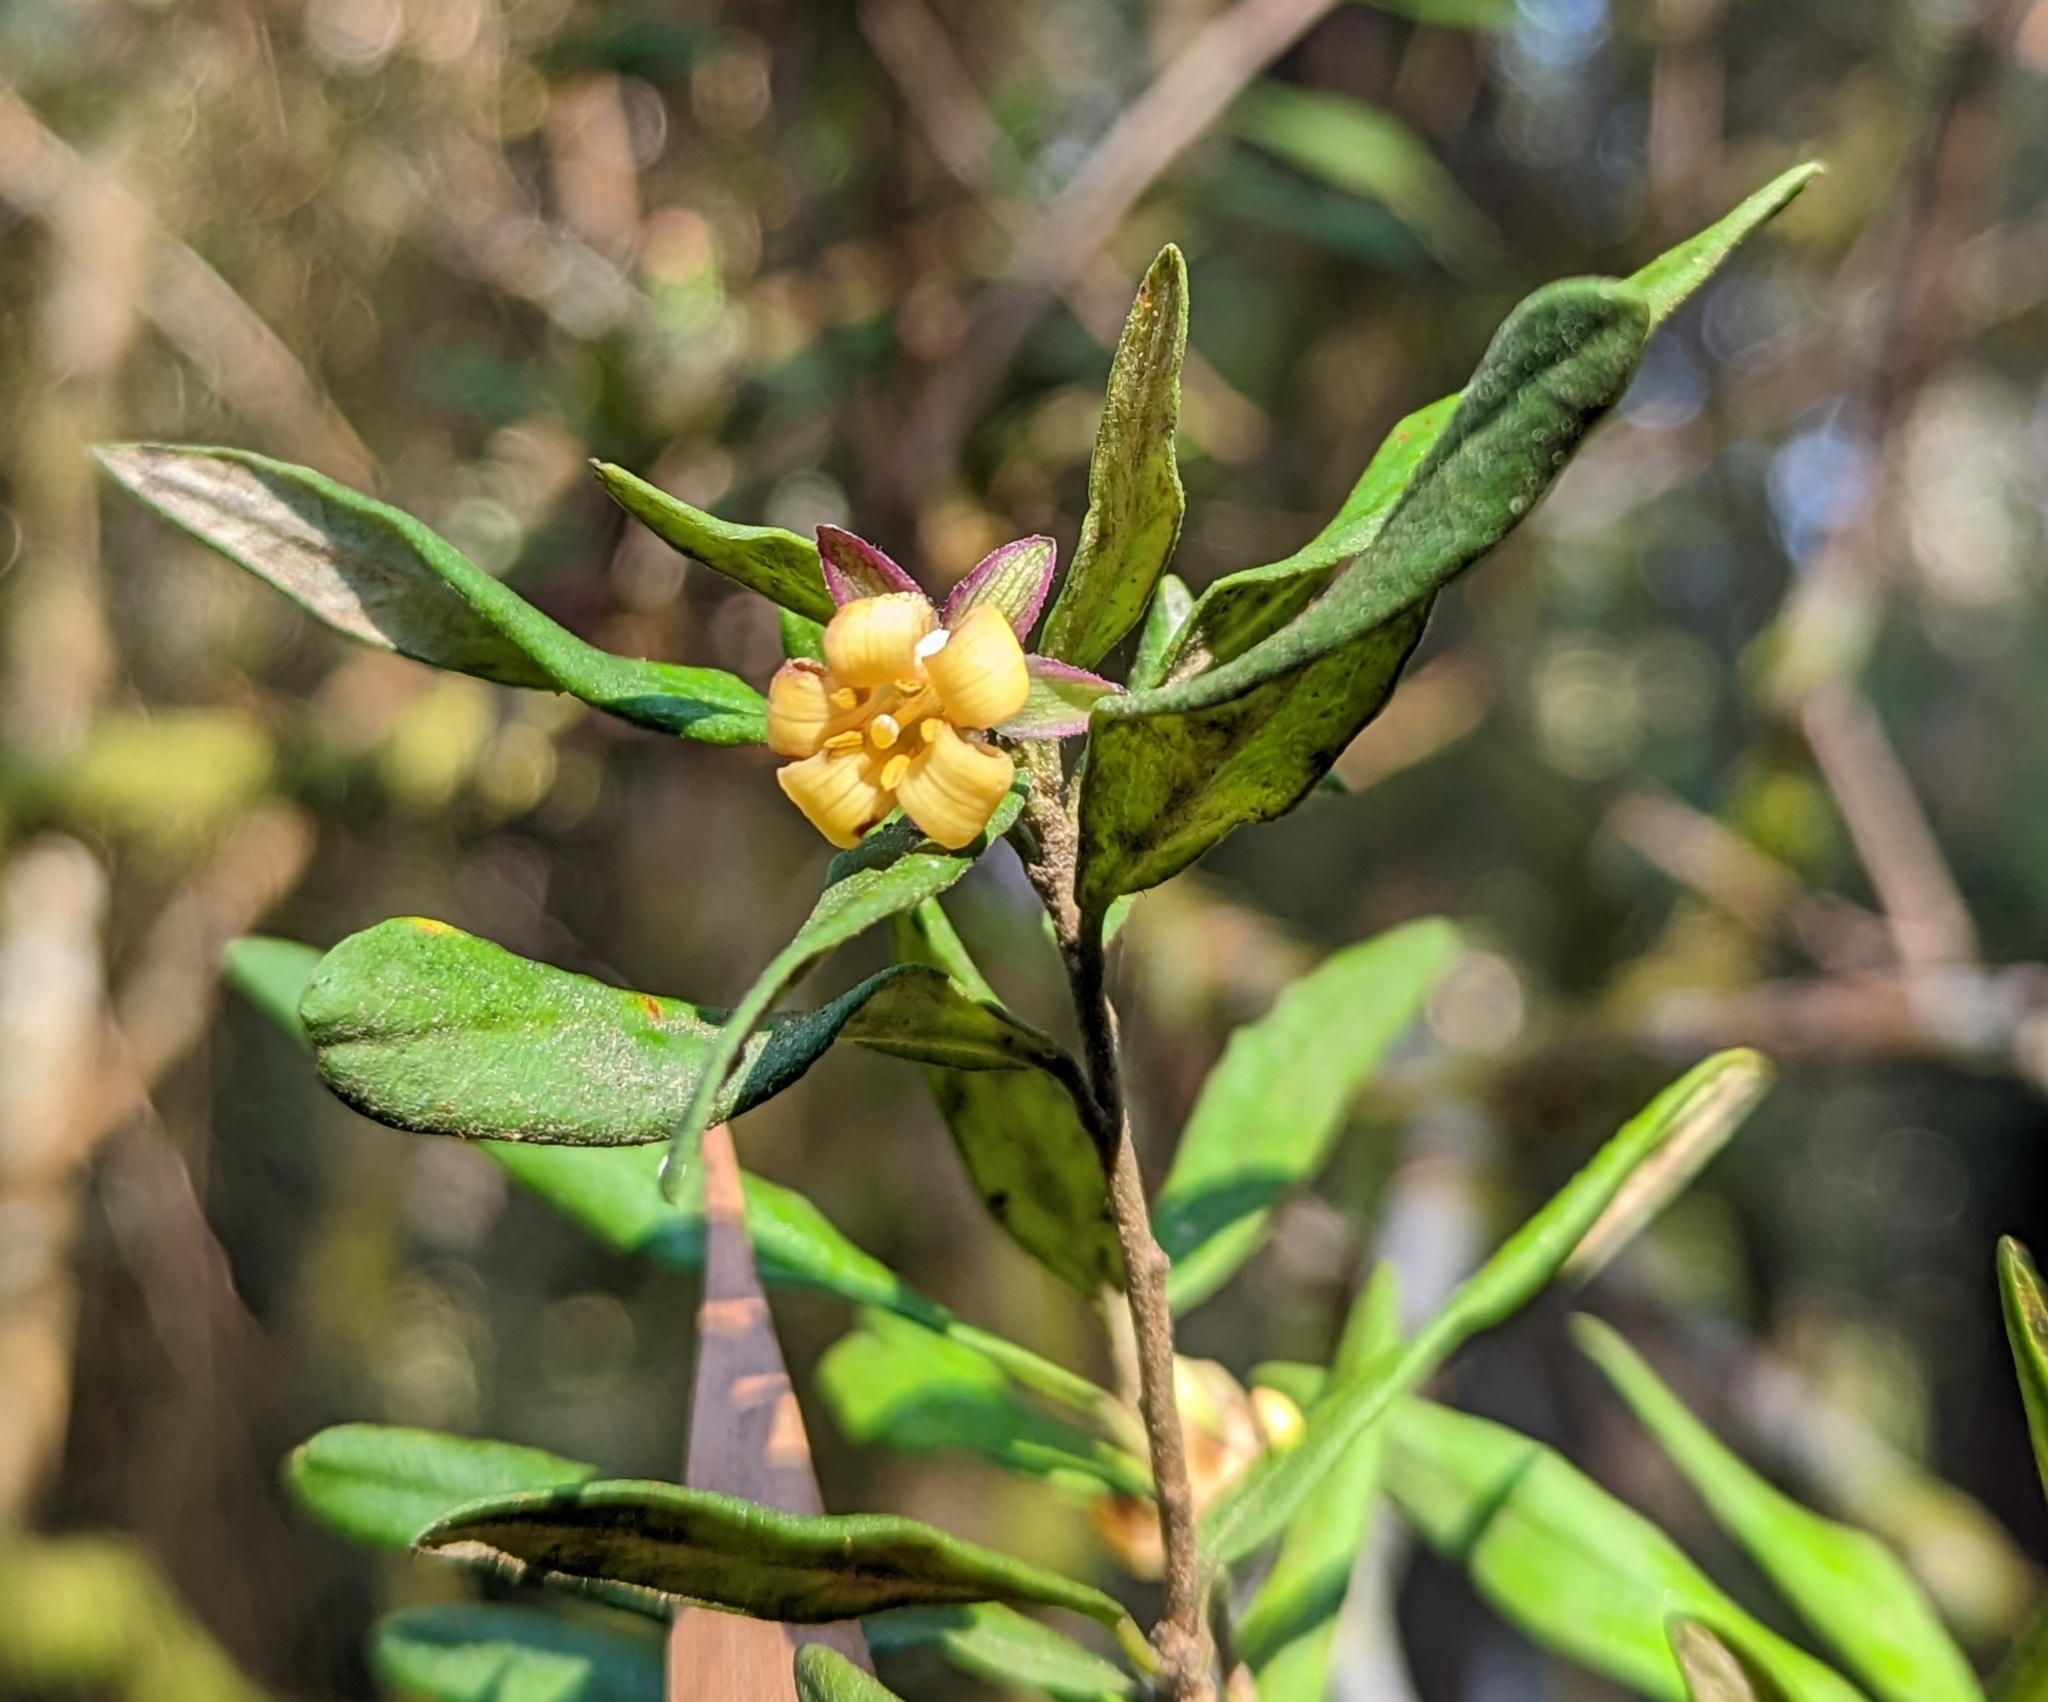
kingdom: Plantae
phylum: Tracheophyta
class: Magnoliopsida
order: Apiales
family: Pittosporaceae
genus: Pittosporum
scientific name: Pittosporum bicolor
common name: Tallowwood
